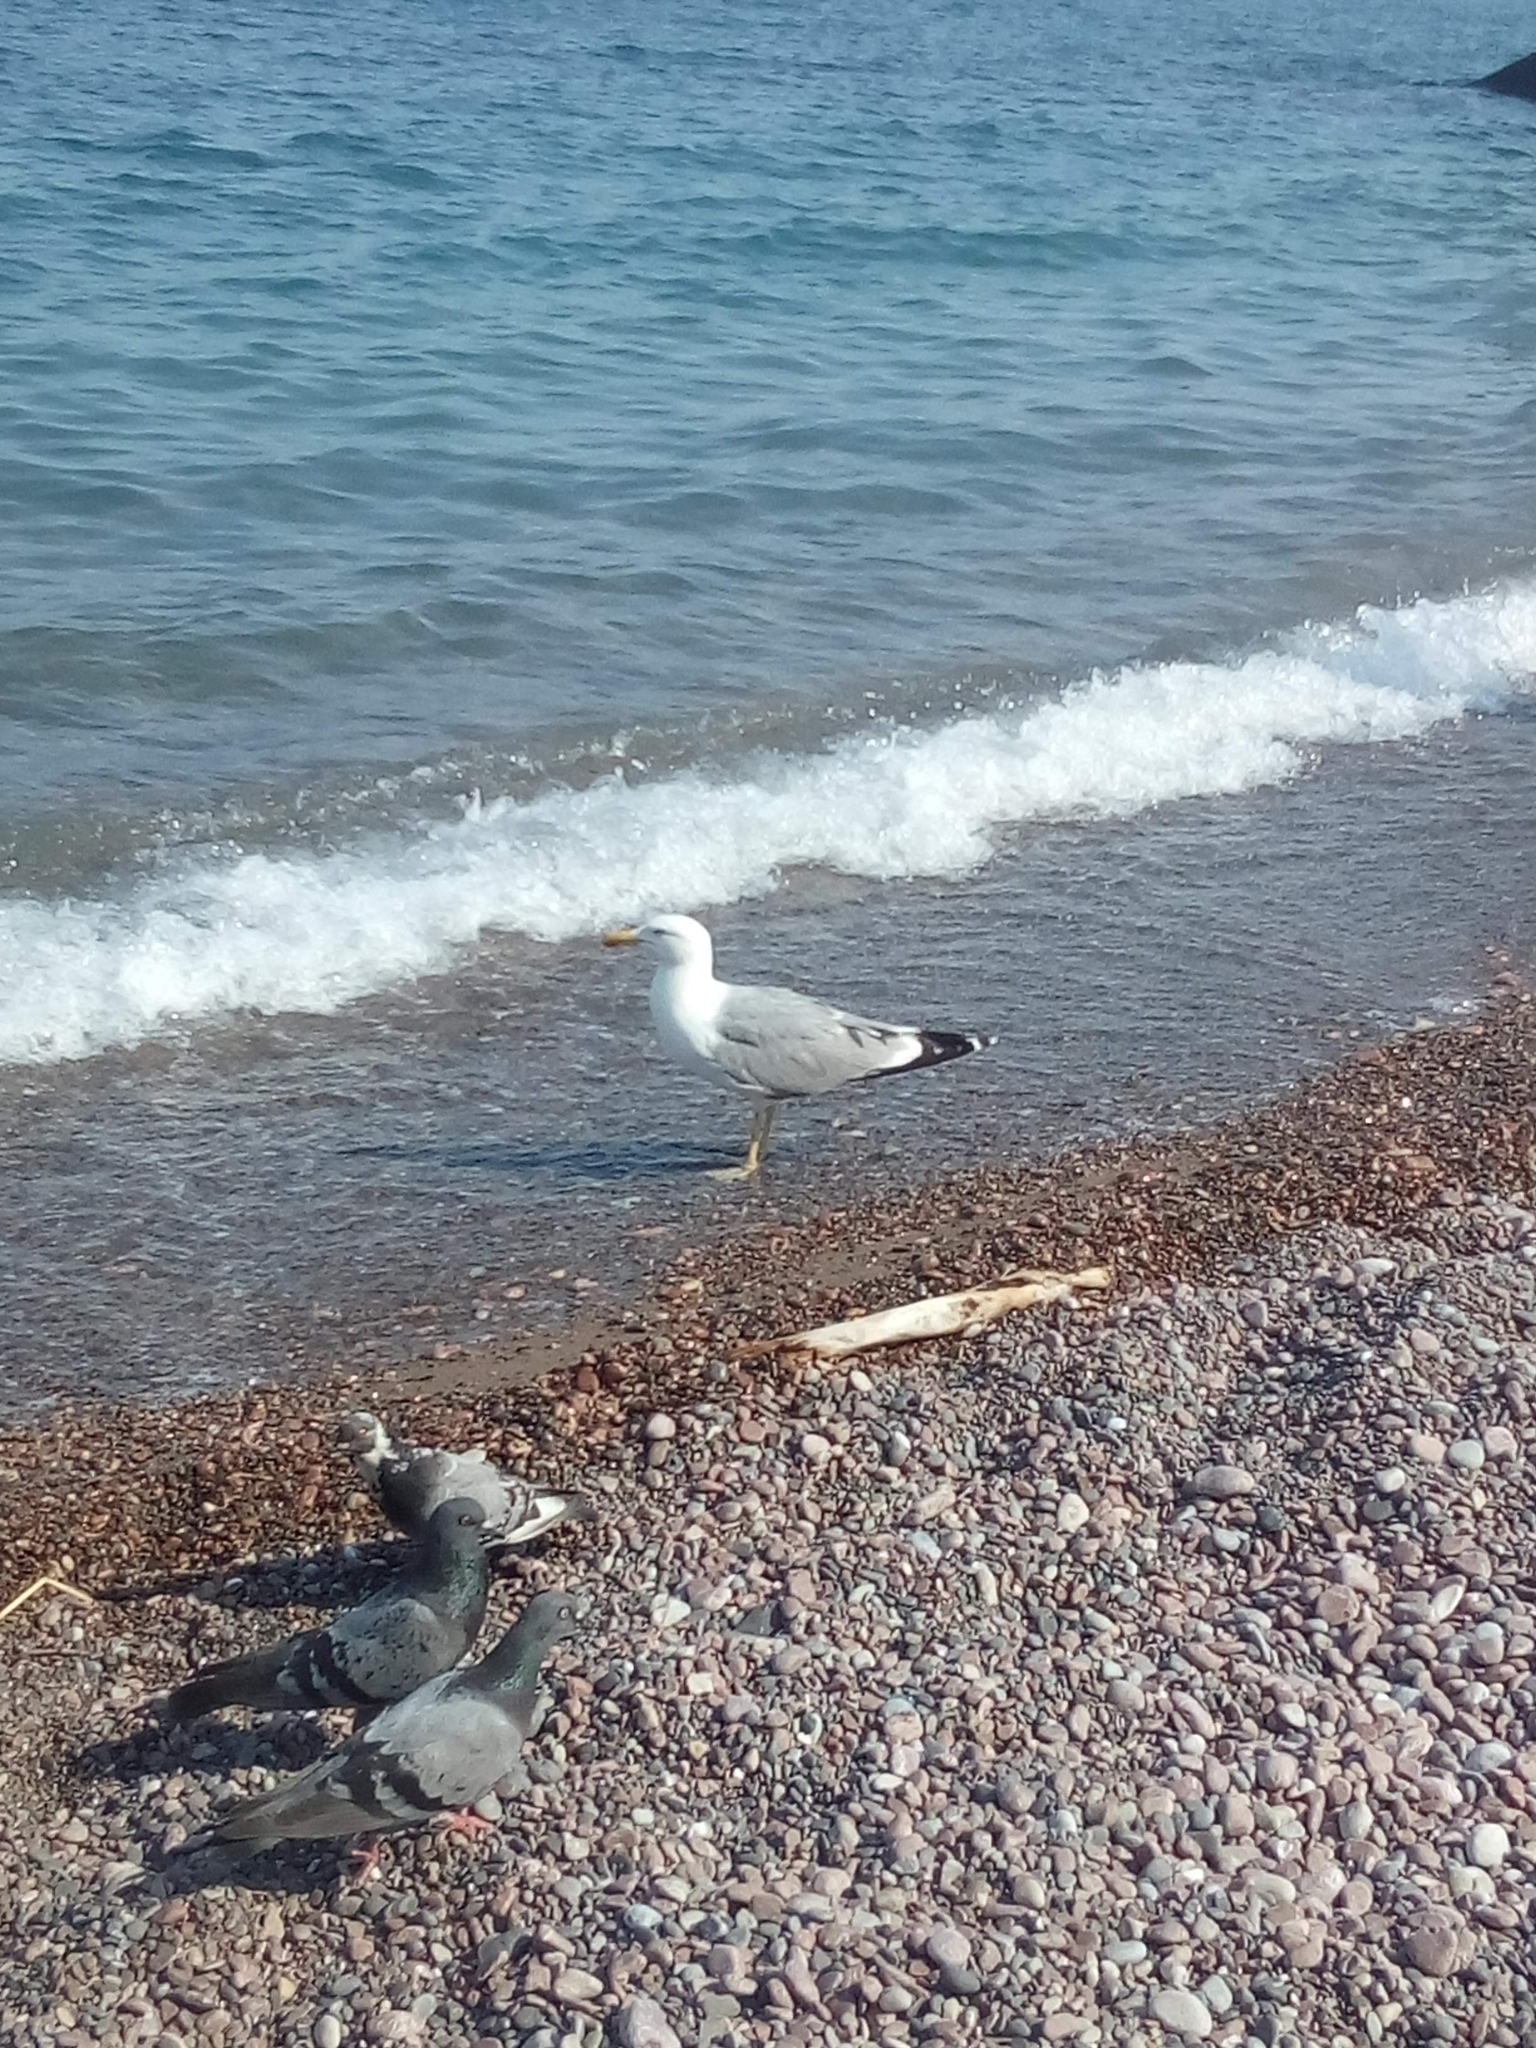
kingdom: Animalia
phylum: Chordata
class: Aves
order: Charadriiformes
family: Laridae
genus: Larus
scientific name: Larus michahellis
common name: Yellow-legged gull
